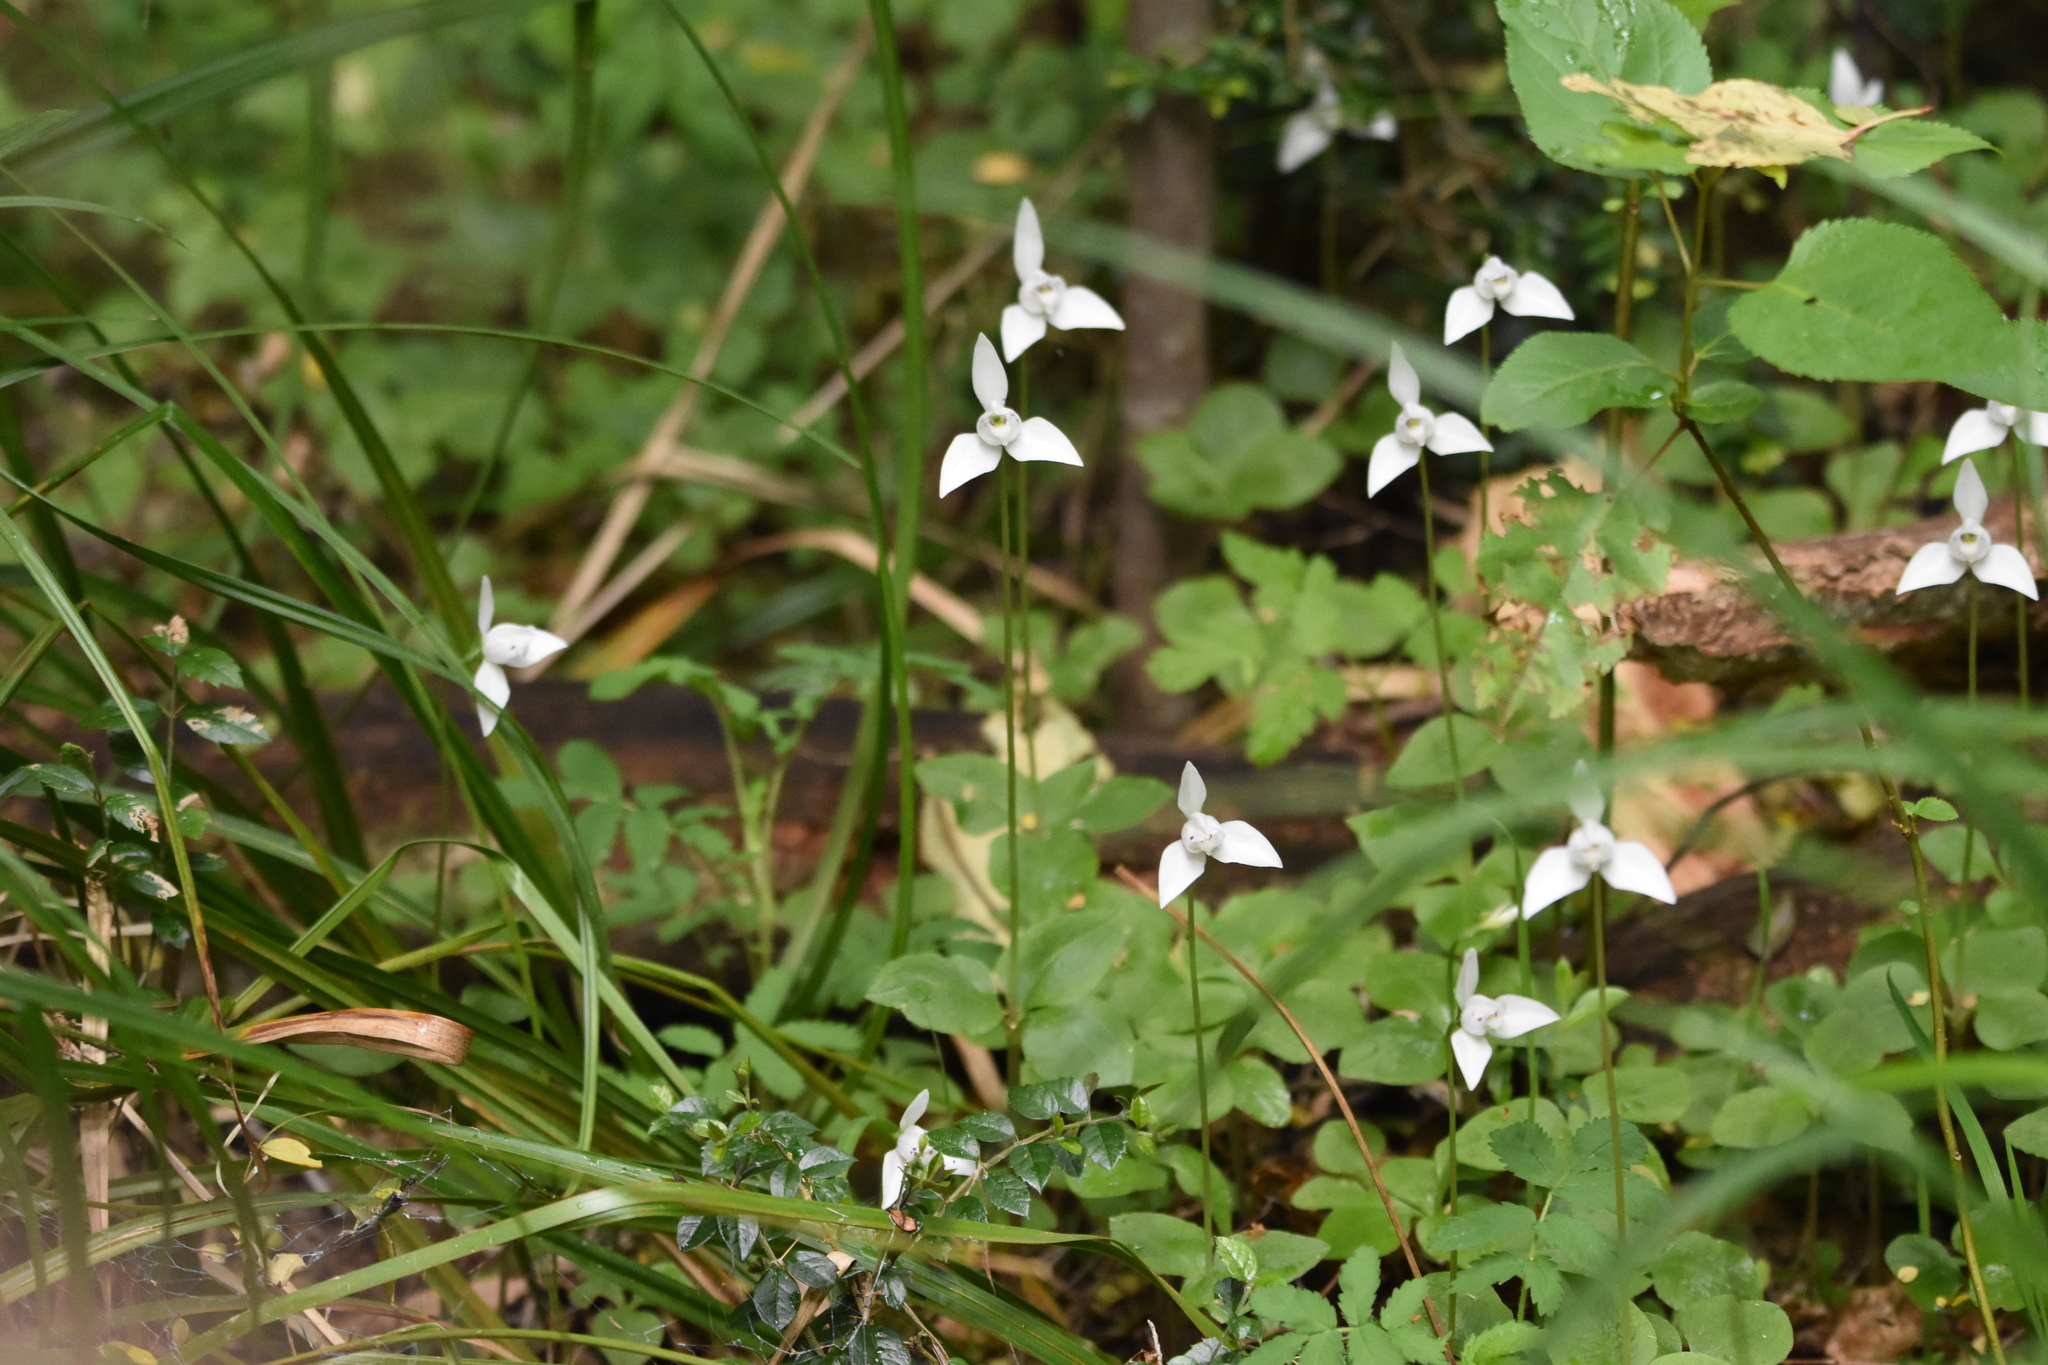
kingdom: Plantae
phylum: Tracheophyta
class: Liliopsida
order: Asparagales
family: Orchidaceae
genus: Codonorchis
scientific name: Codonorchis lessonii
